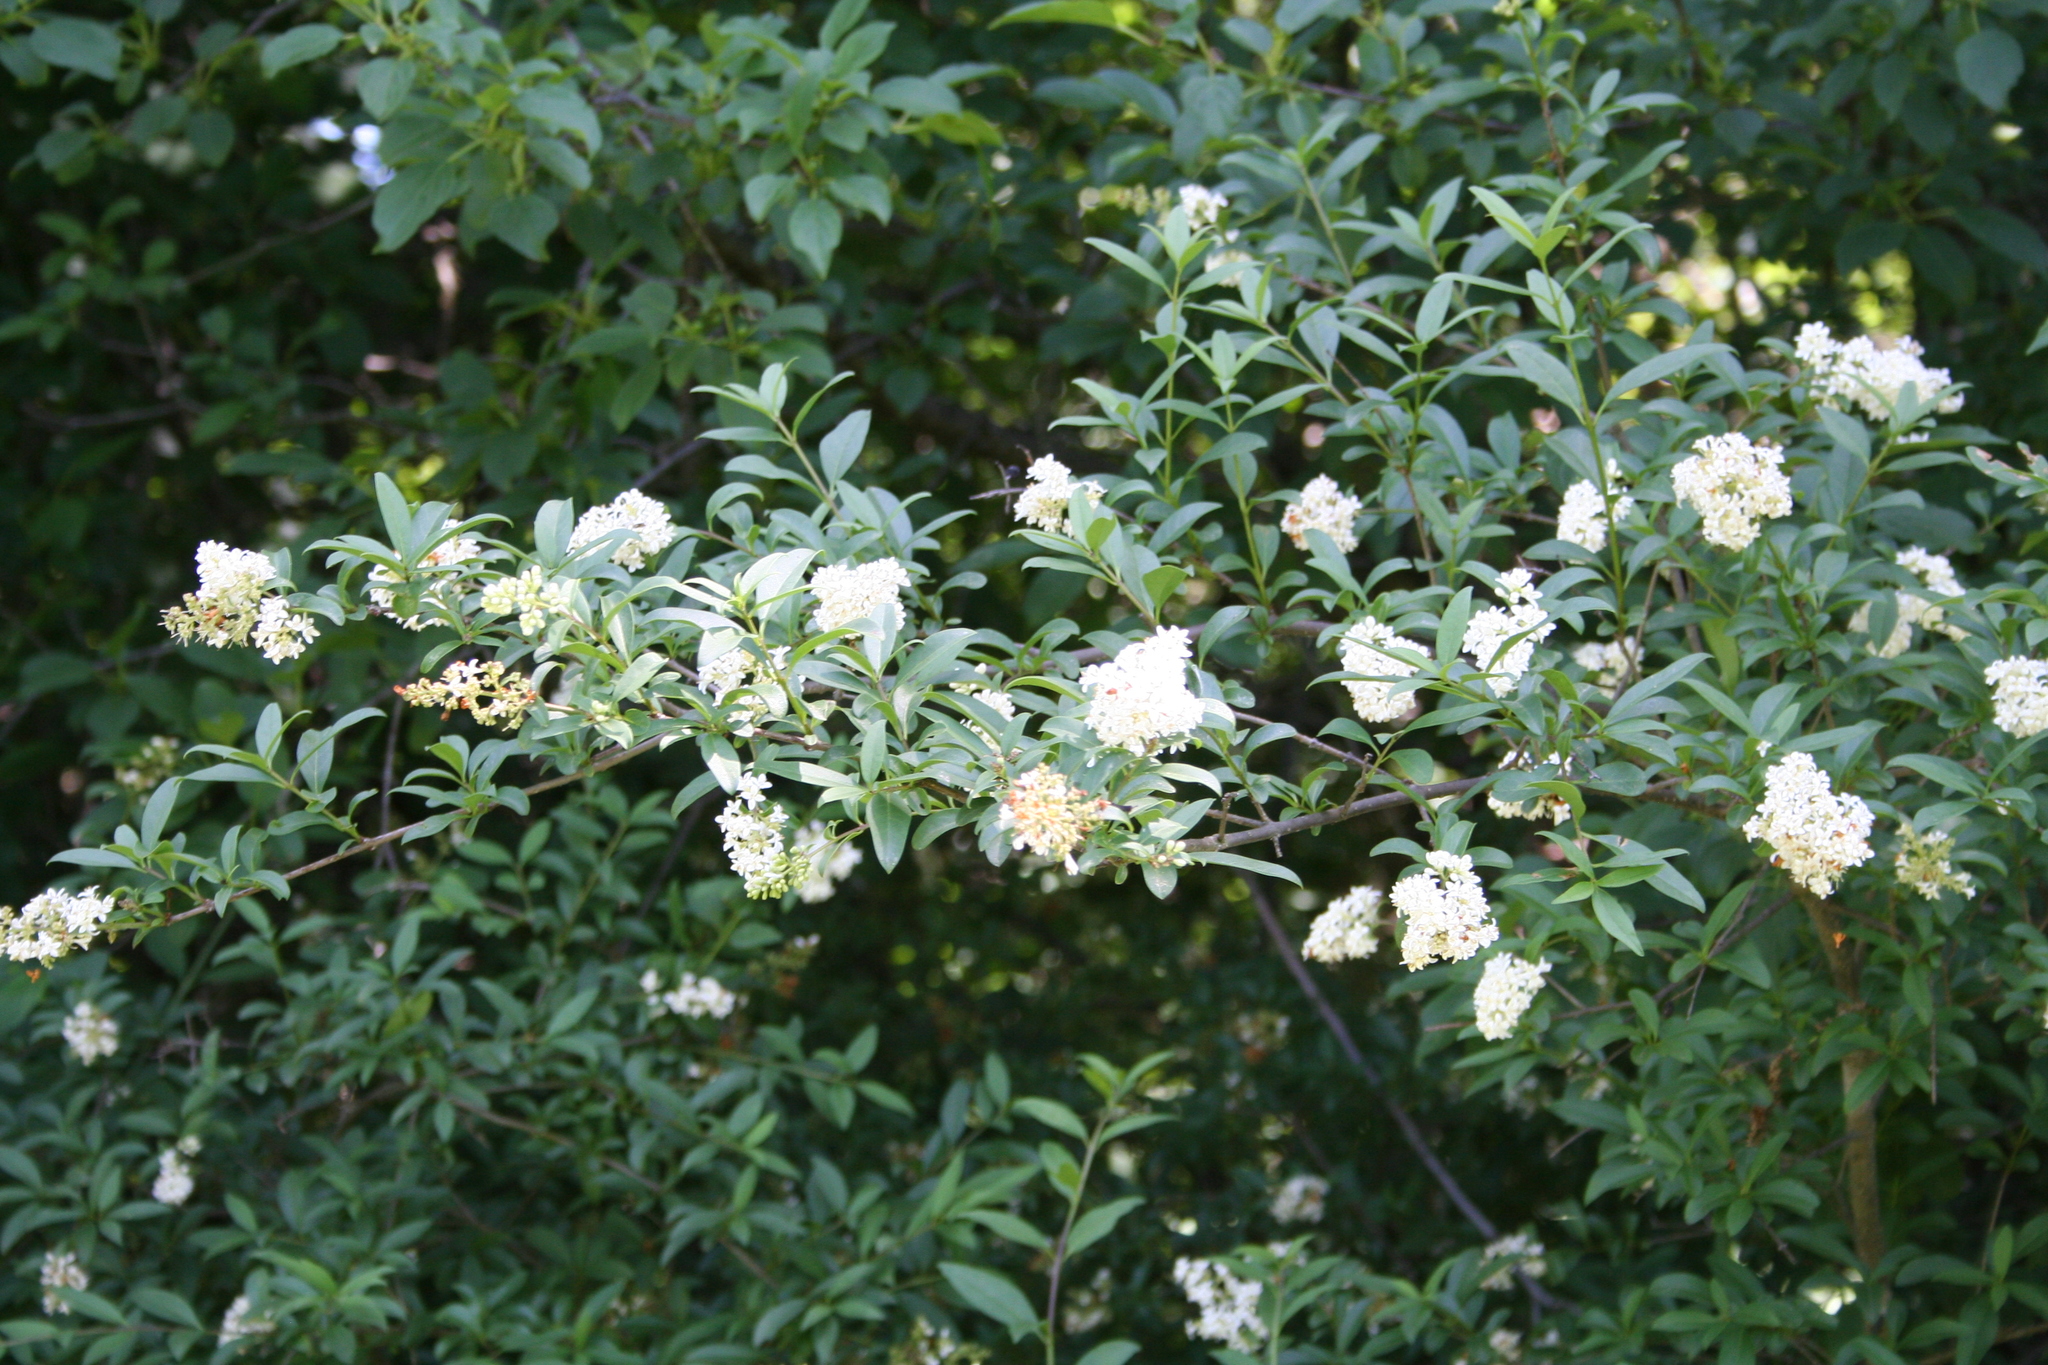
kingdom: Plantae
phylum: Tracheophyta
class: Magnoliopsida
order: Lamiales
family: Oleaceae
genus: Ligustrum
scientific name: Ligustrum vulgare
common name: Wild privet
